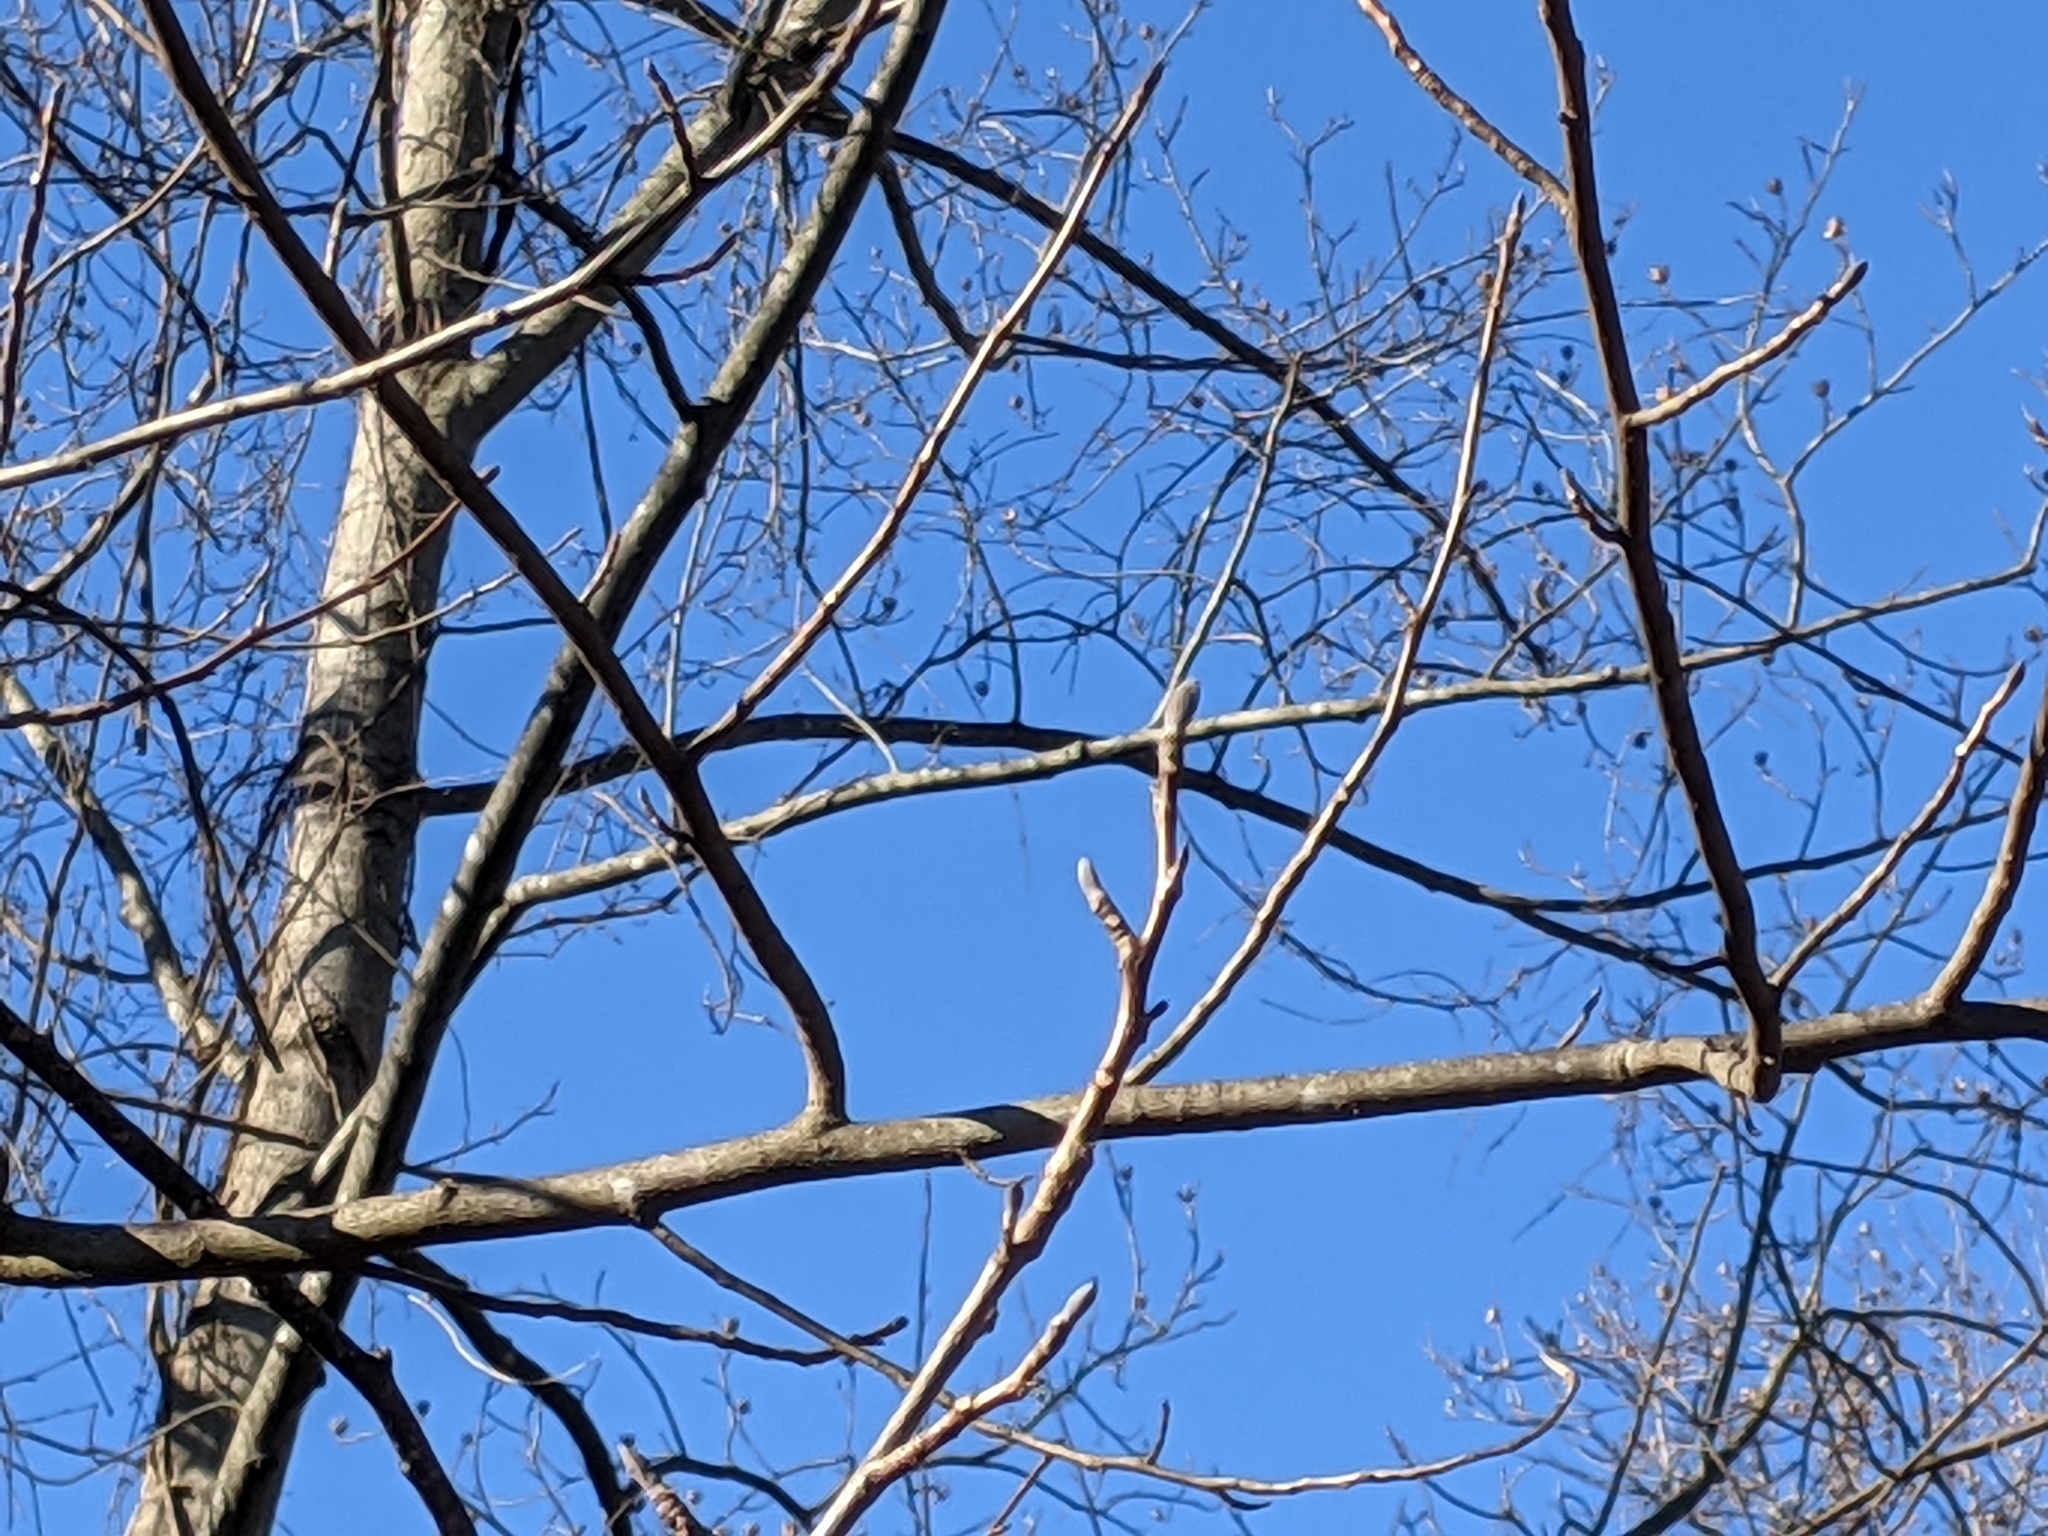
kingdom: Plantae
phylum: Tracheophyta
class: Magnoliopsida
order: Magnoliales
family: Magnoliaceae
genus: Liriodendron
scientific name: Liriodendron tulipifera
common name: Tulip tree
